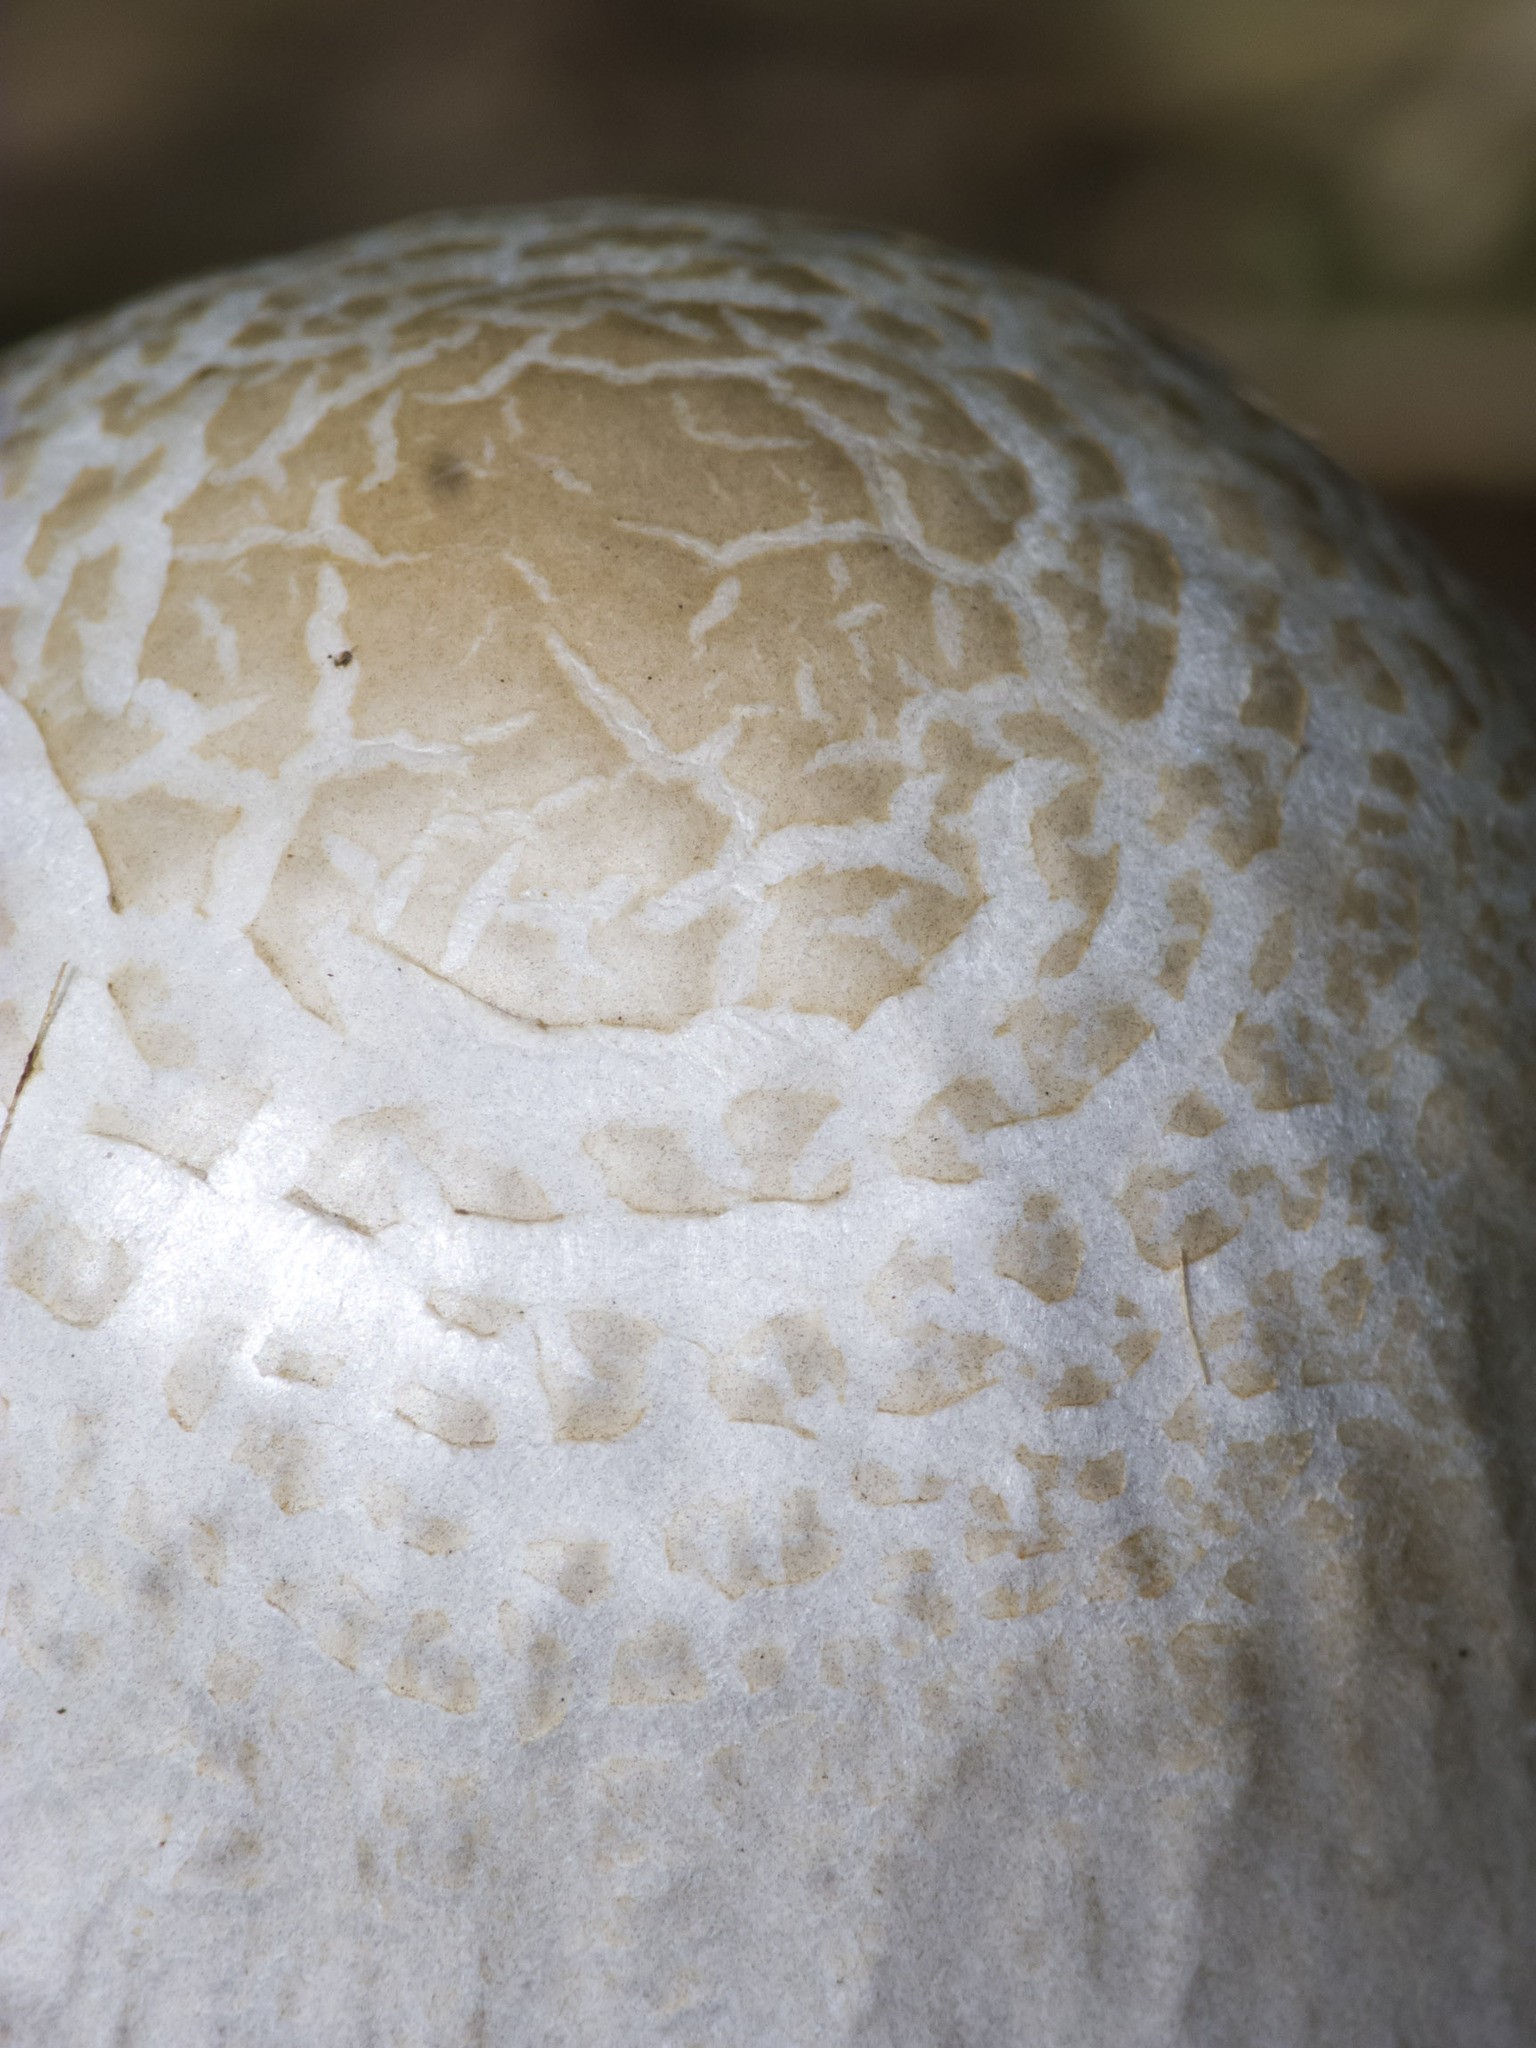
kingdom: Fungi
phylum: Basidiomycota
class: Agaricomycetes
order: Agaricales
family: Bolbitiaceae
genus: Panaeolus
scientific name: Panaeolus antillarum
